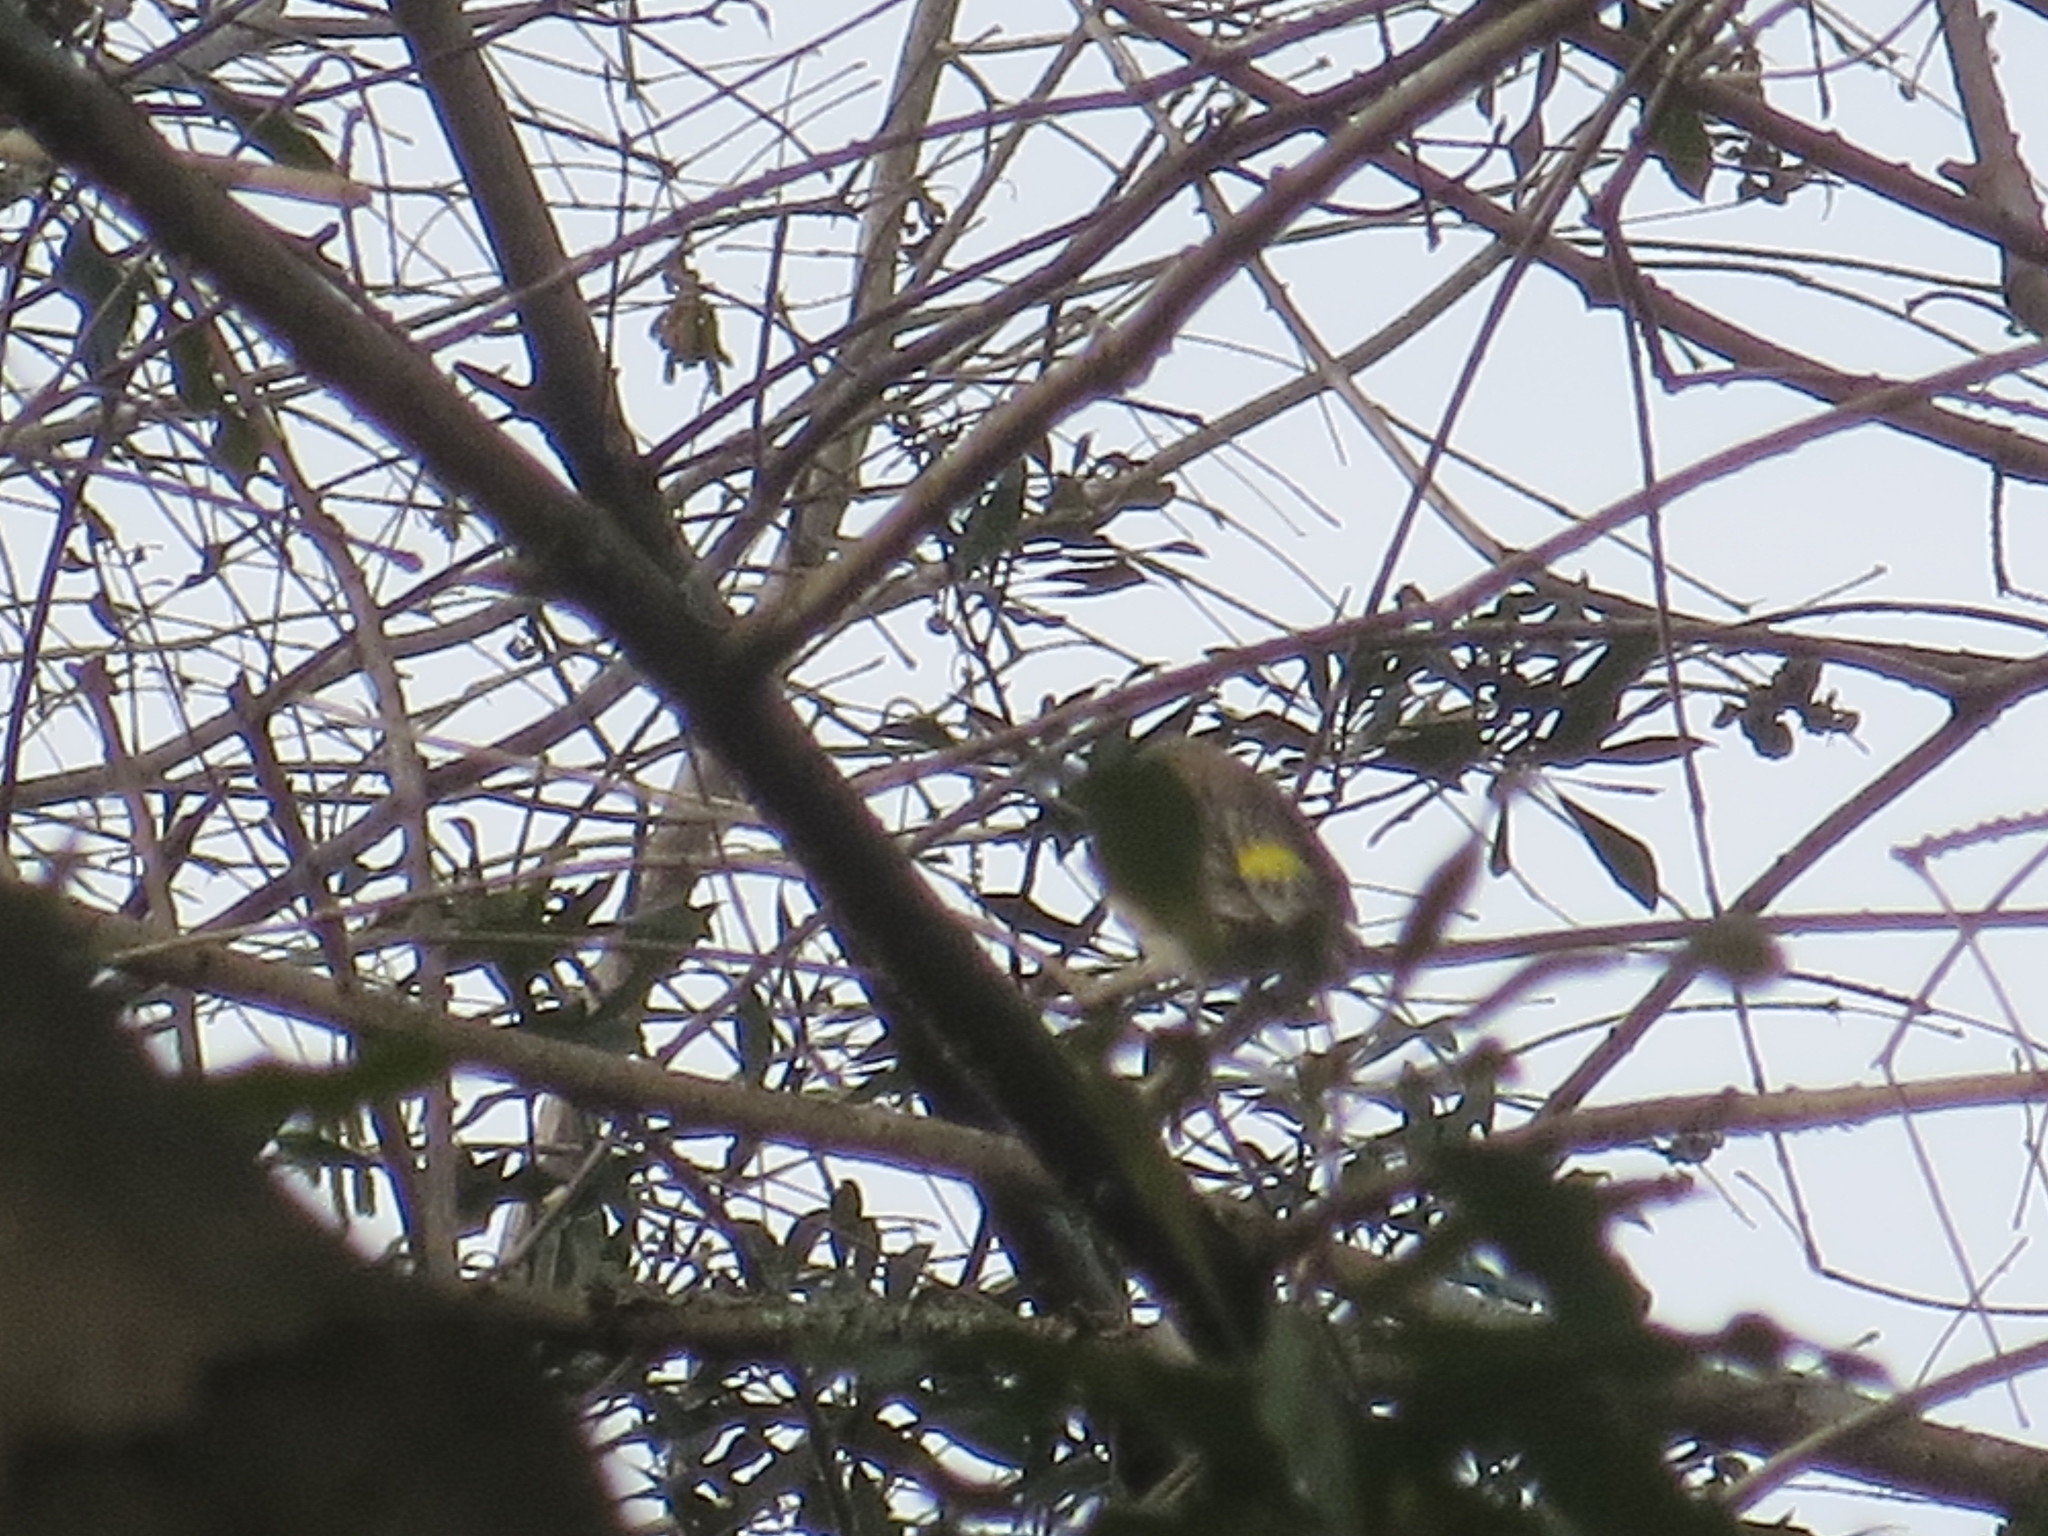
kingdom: Animalia
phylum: Chordata
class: Aves
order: Passeriformes
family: Parulidae
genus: Setophaga
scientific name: Setophaga coronata
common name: Myrtle warbler
